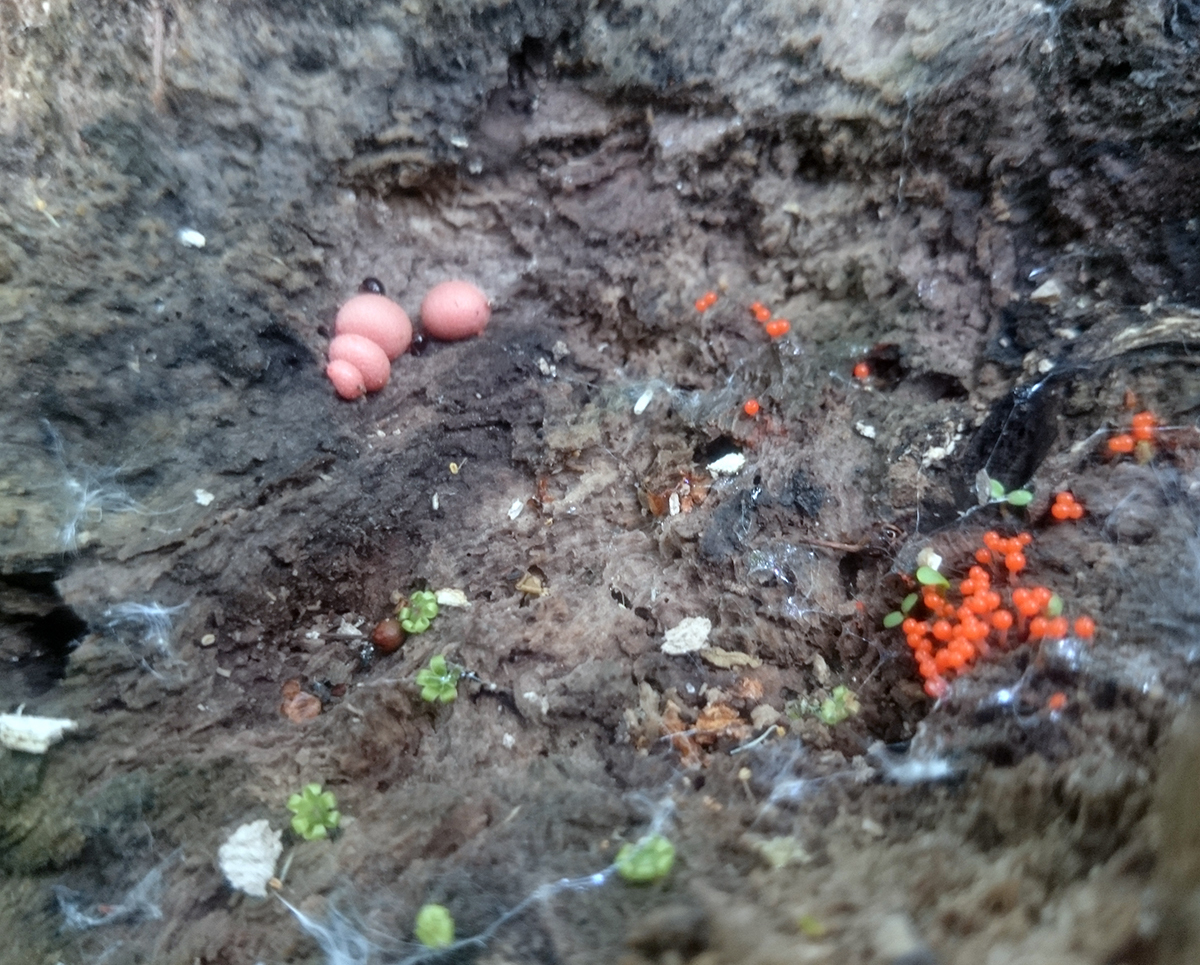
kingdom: Protozoa
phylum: Mycetozoa
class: Myxomycetes
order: Cribrariales
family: Tubiferaceae
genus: Lycogala
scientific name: Lycogala epidendrum
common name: Wolf's milk
